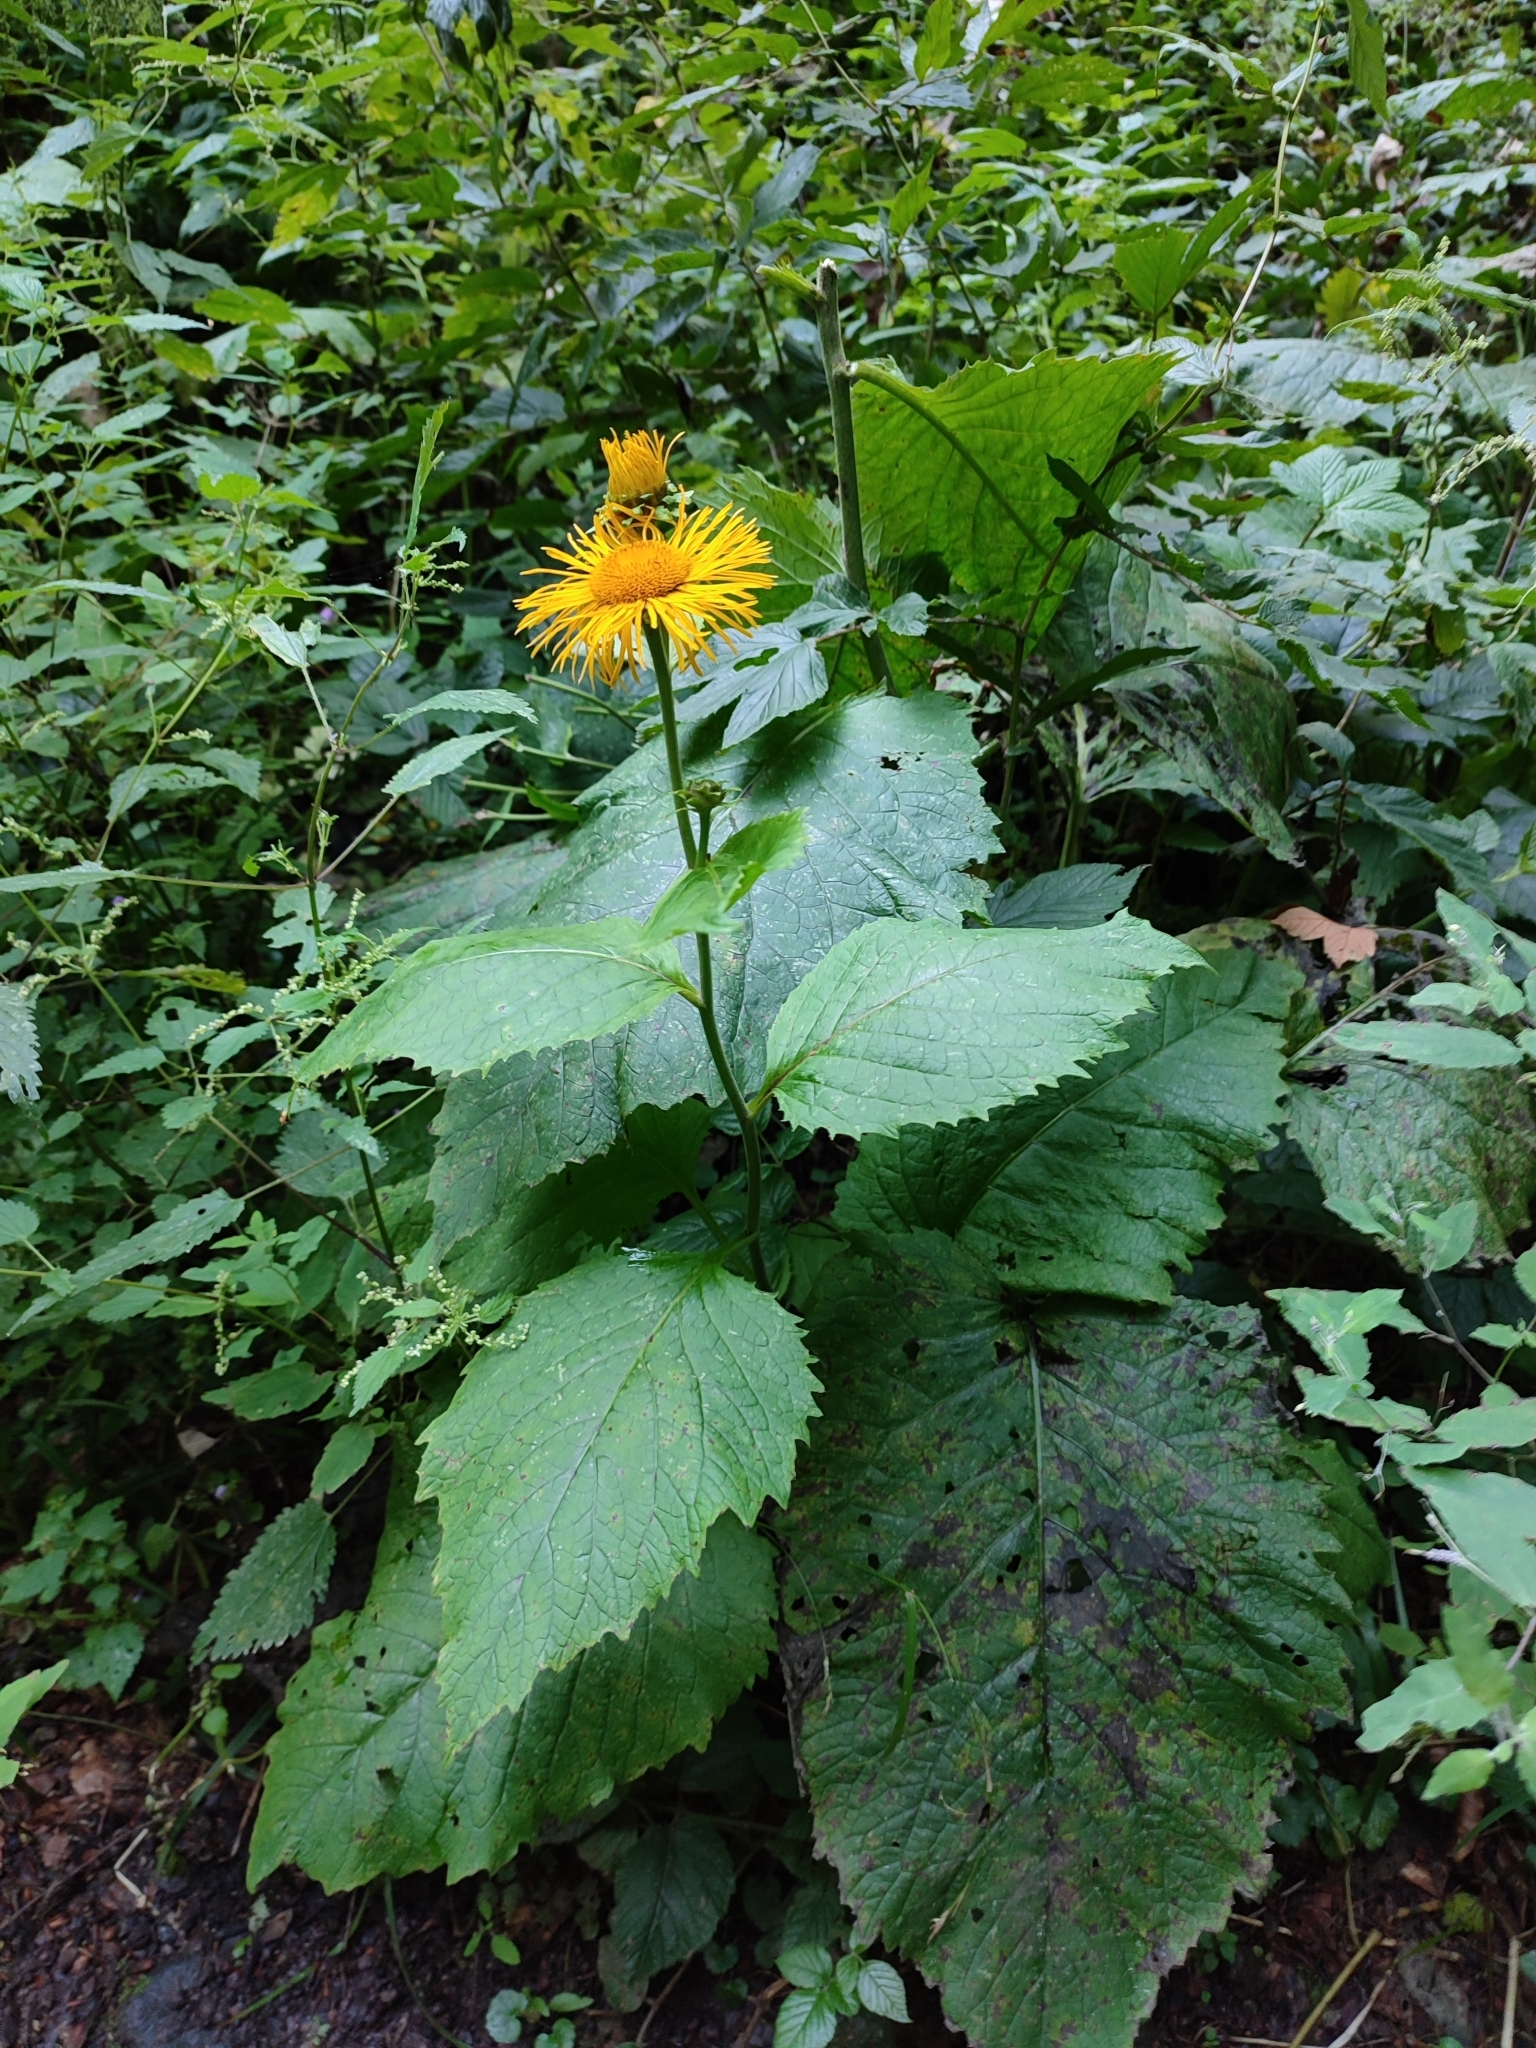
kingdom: Plantae
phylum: Tracheophyta
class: Magnoliopsida
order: Asterales
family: Asteraceae
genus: Telekia
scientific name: Telekia speciosa
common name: Yellow oxeye
